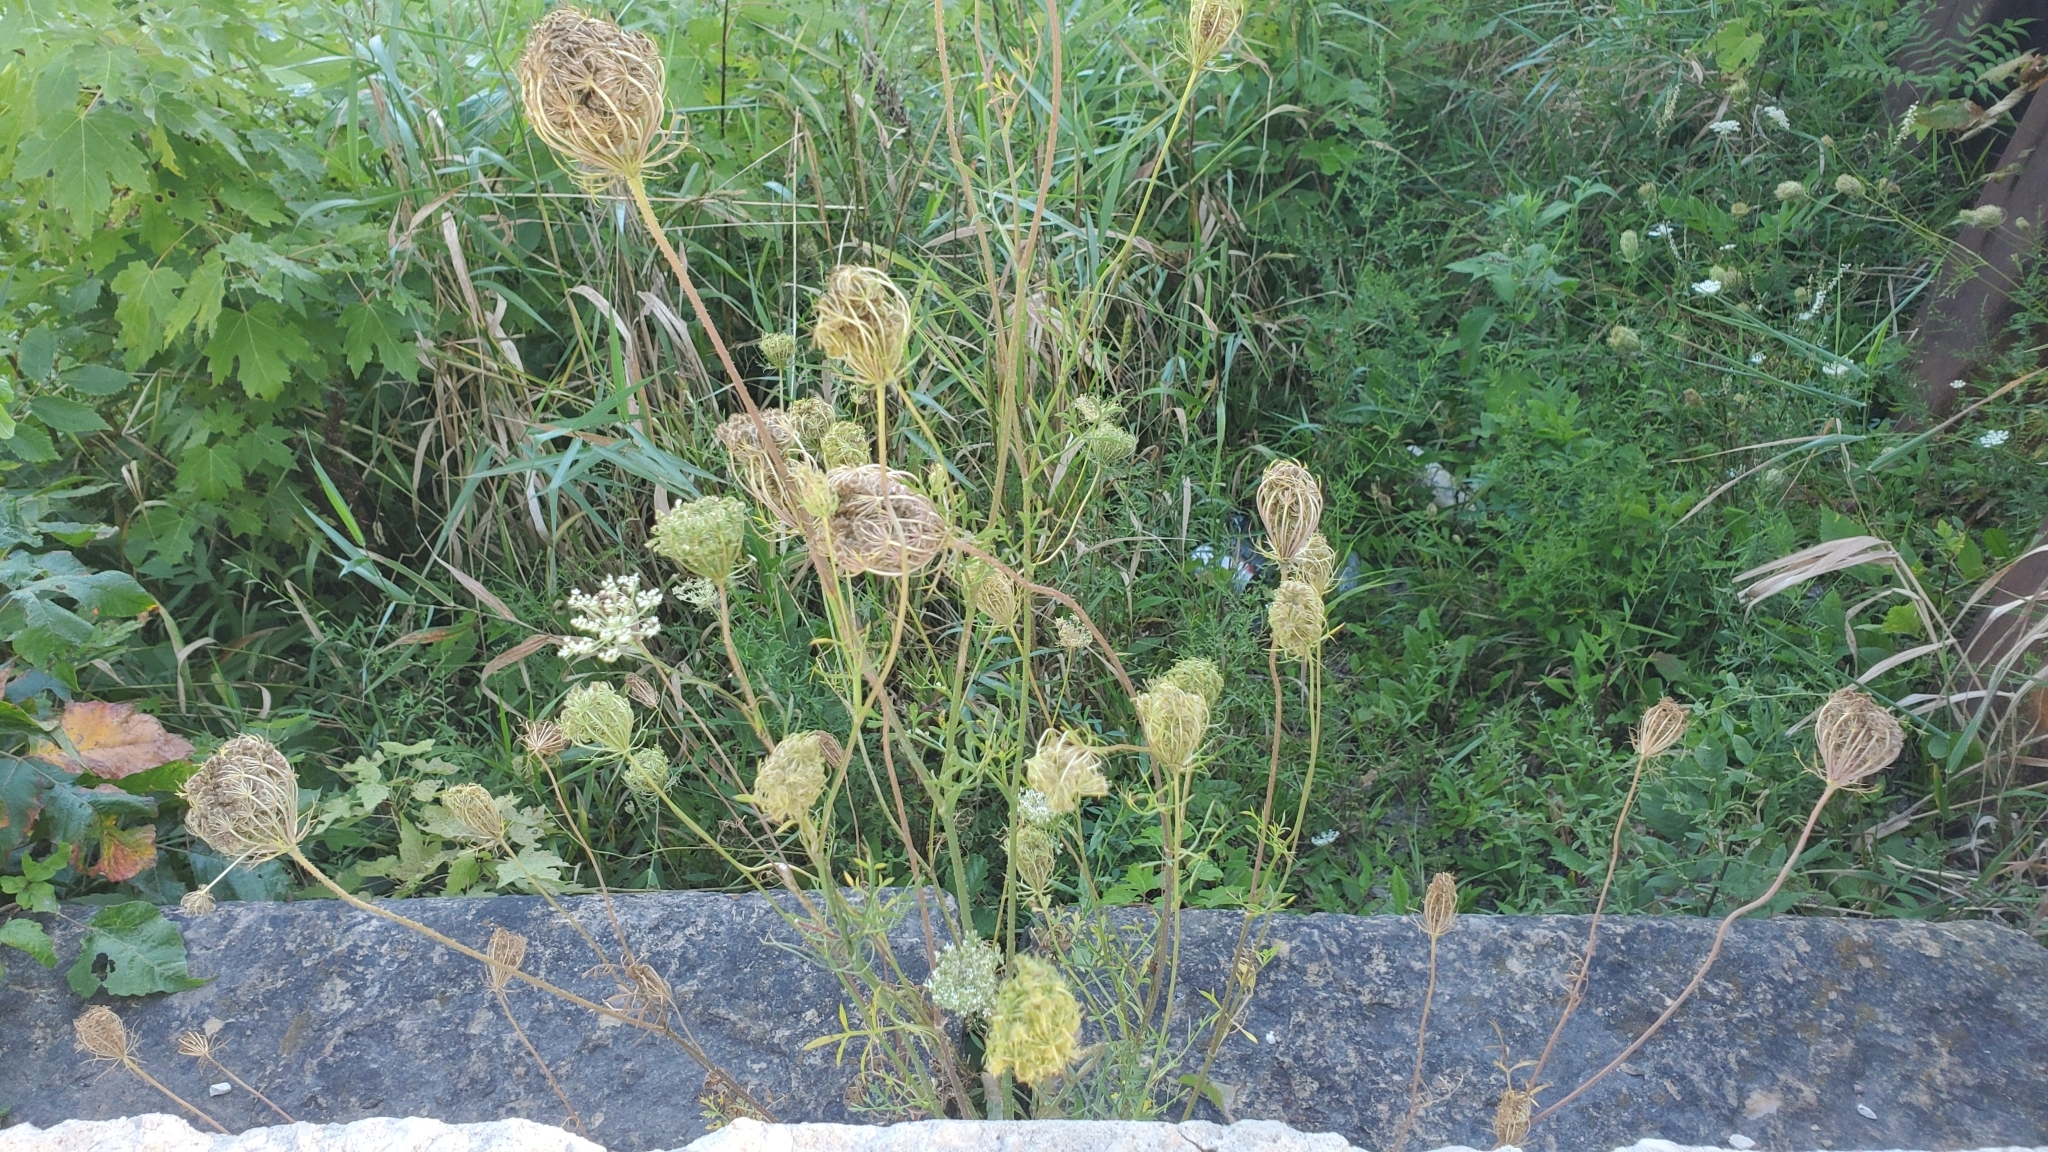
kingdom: Plantae
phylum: Tracheophyta
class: Magnoliopsida
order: Apiales
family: Apiaceae
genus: Daucus
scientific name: Daucus carota
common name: Wild carrot
